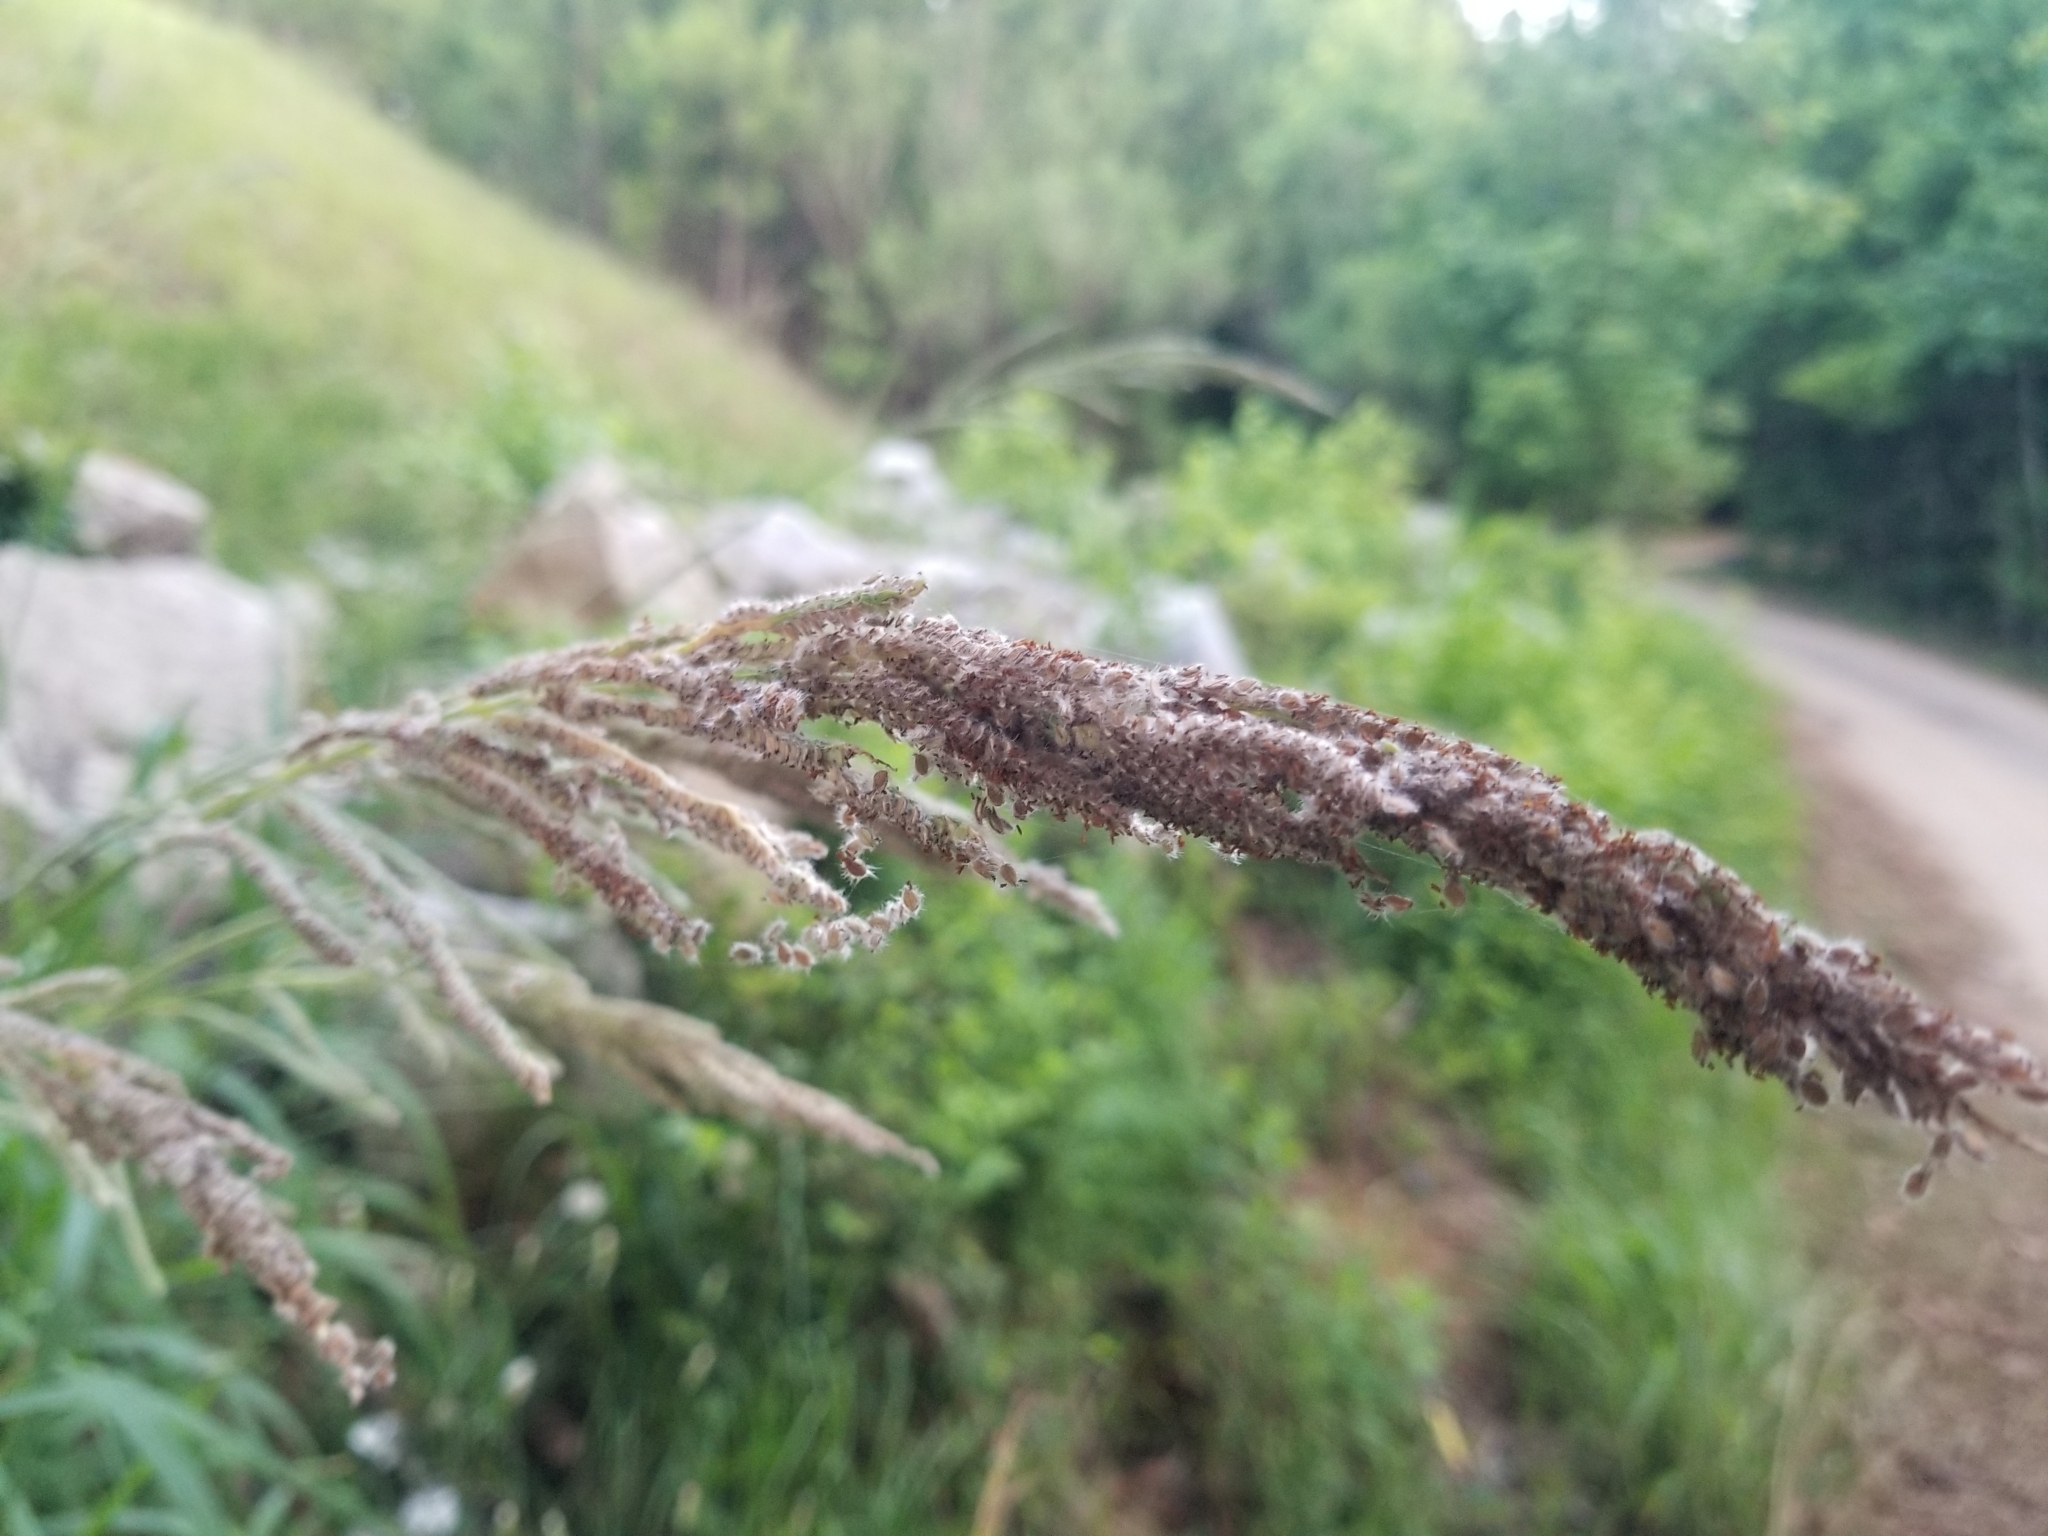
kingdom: Plantae
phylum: Tracheophyta
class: Liliopsida
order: Poales
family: Poaceae
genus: Paspalum
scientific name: Paspalum urvillei
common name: Vasey's grass
